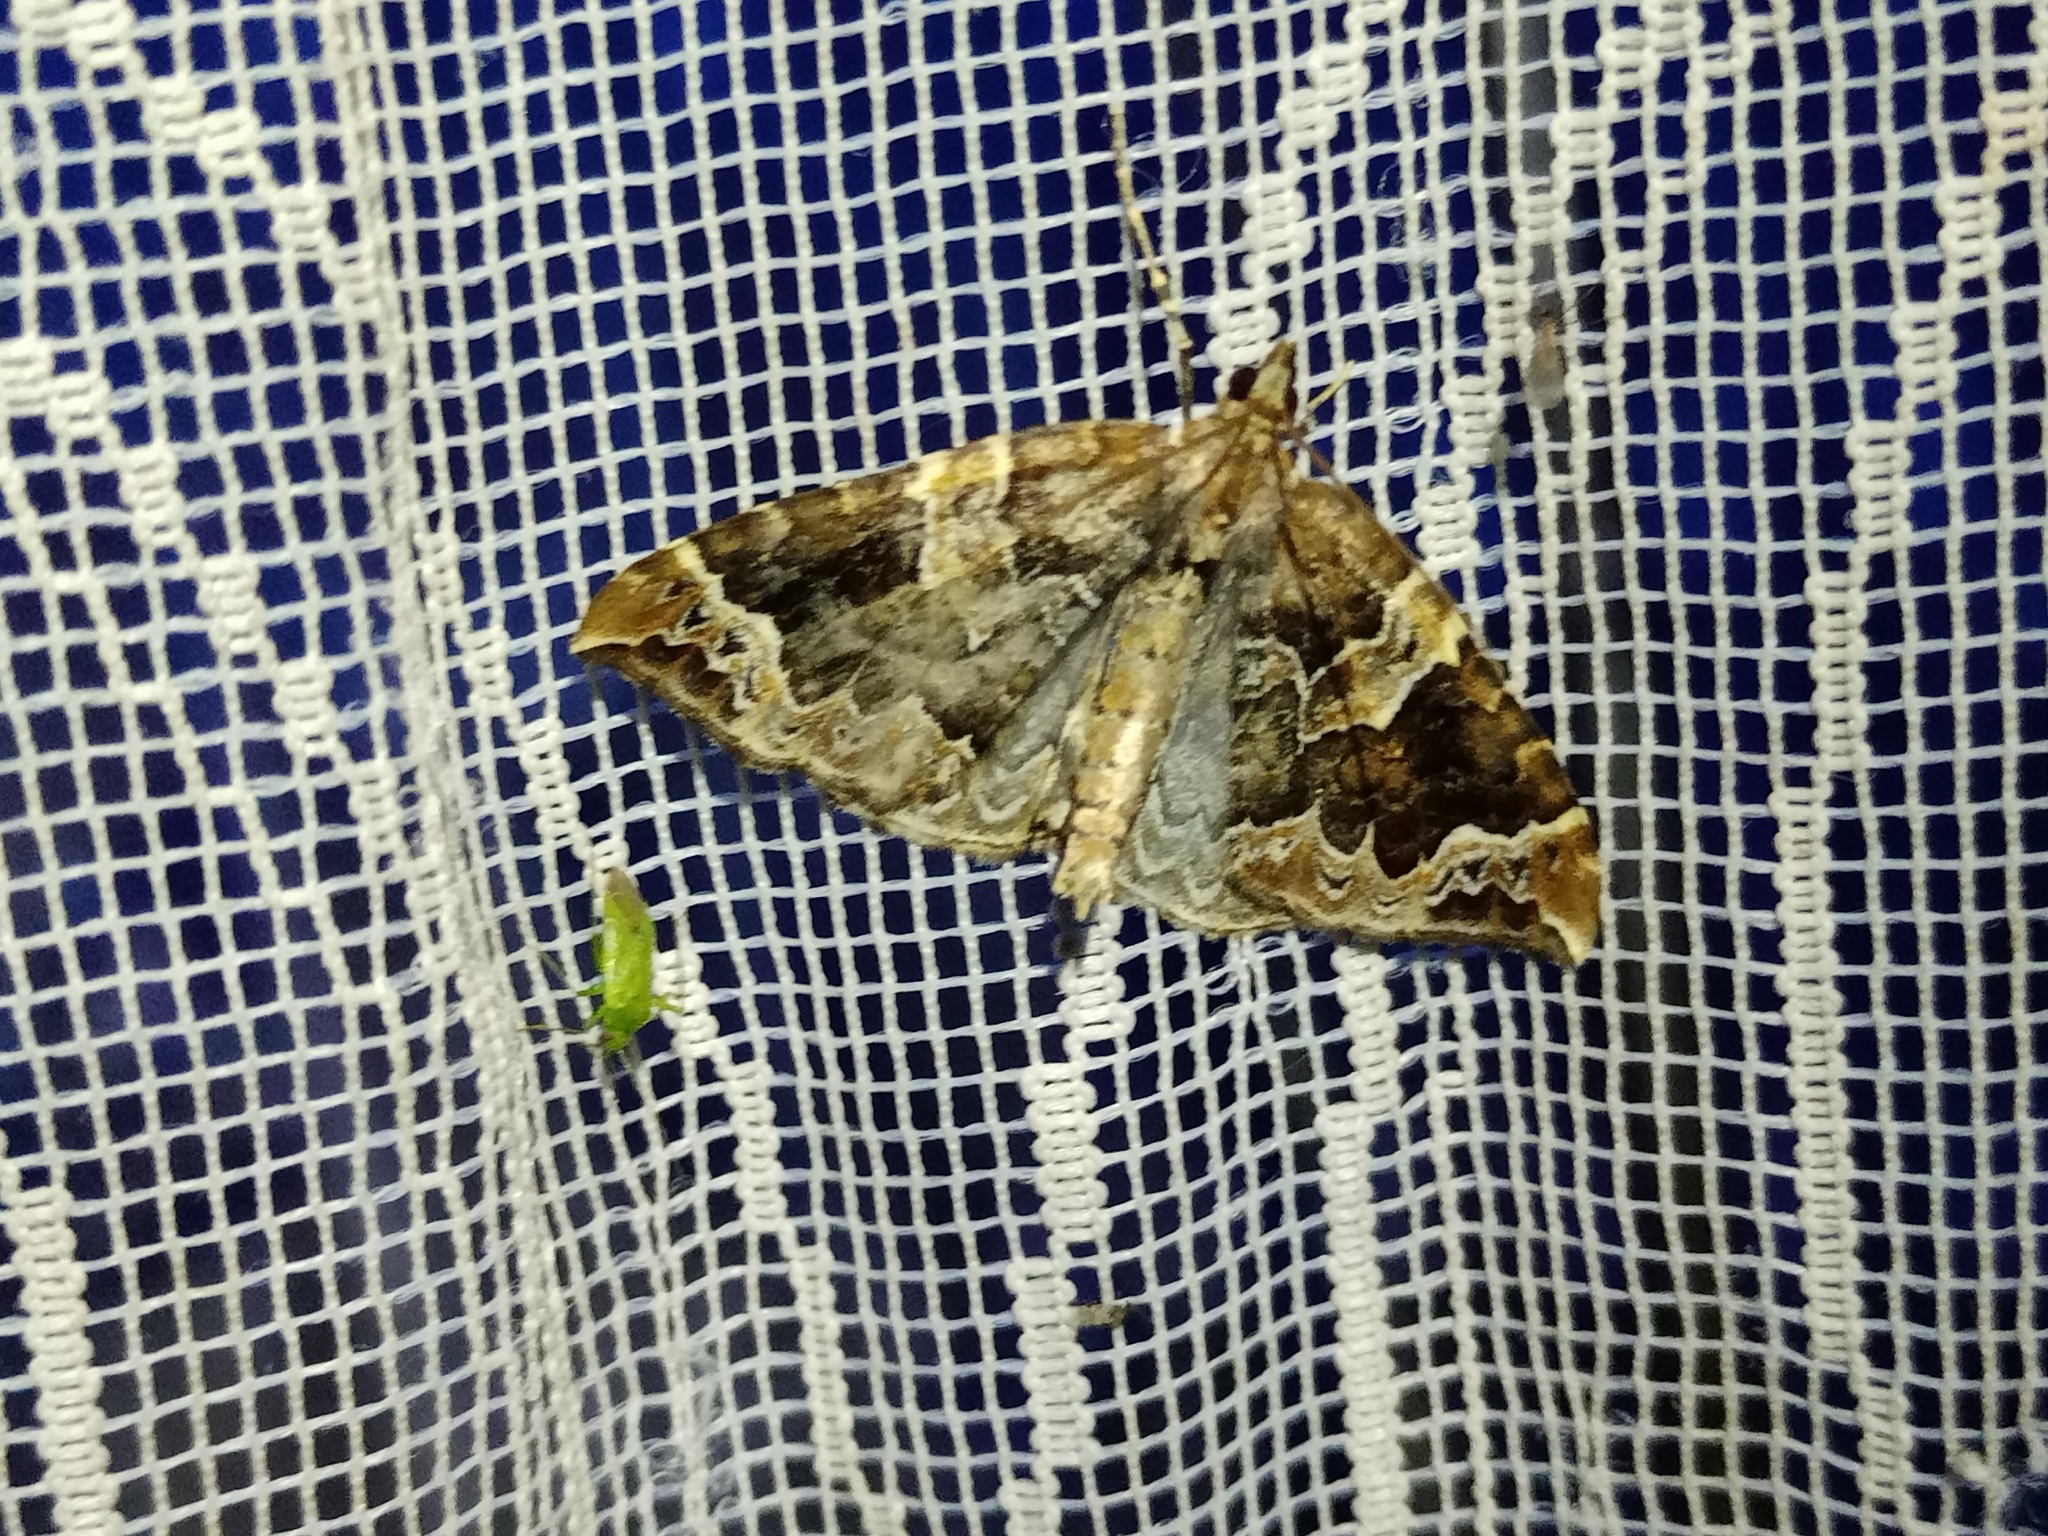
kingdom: Animalia
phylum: Arthropoda
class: Insecta
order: Lepidoptera
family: Geometridae
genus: Eulithis
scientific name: Eulithis prunata
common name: Phoenix
